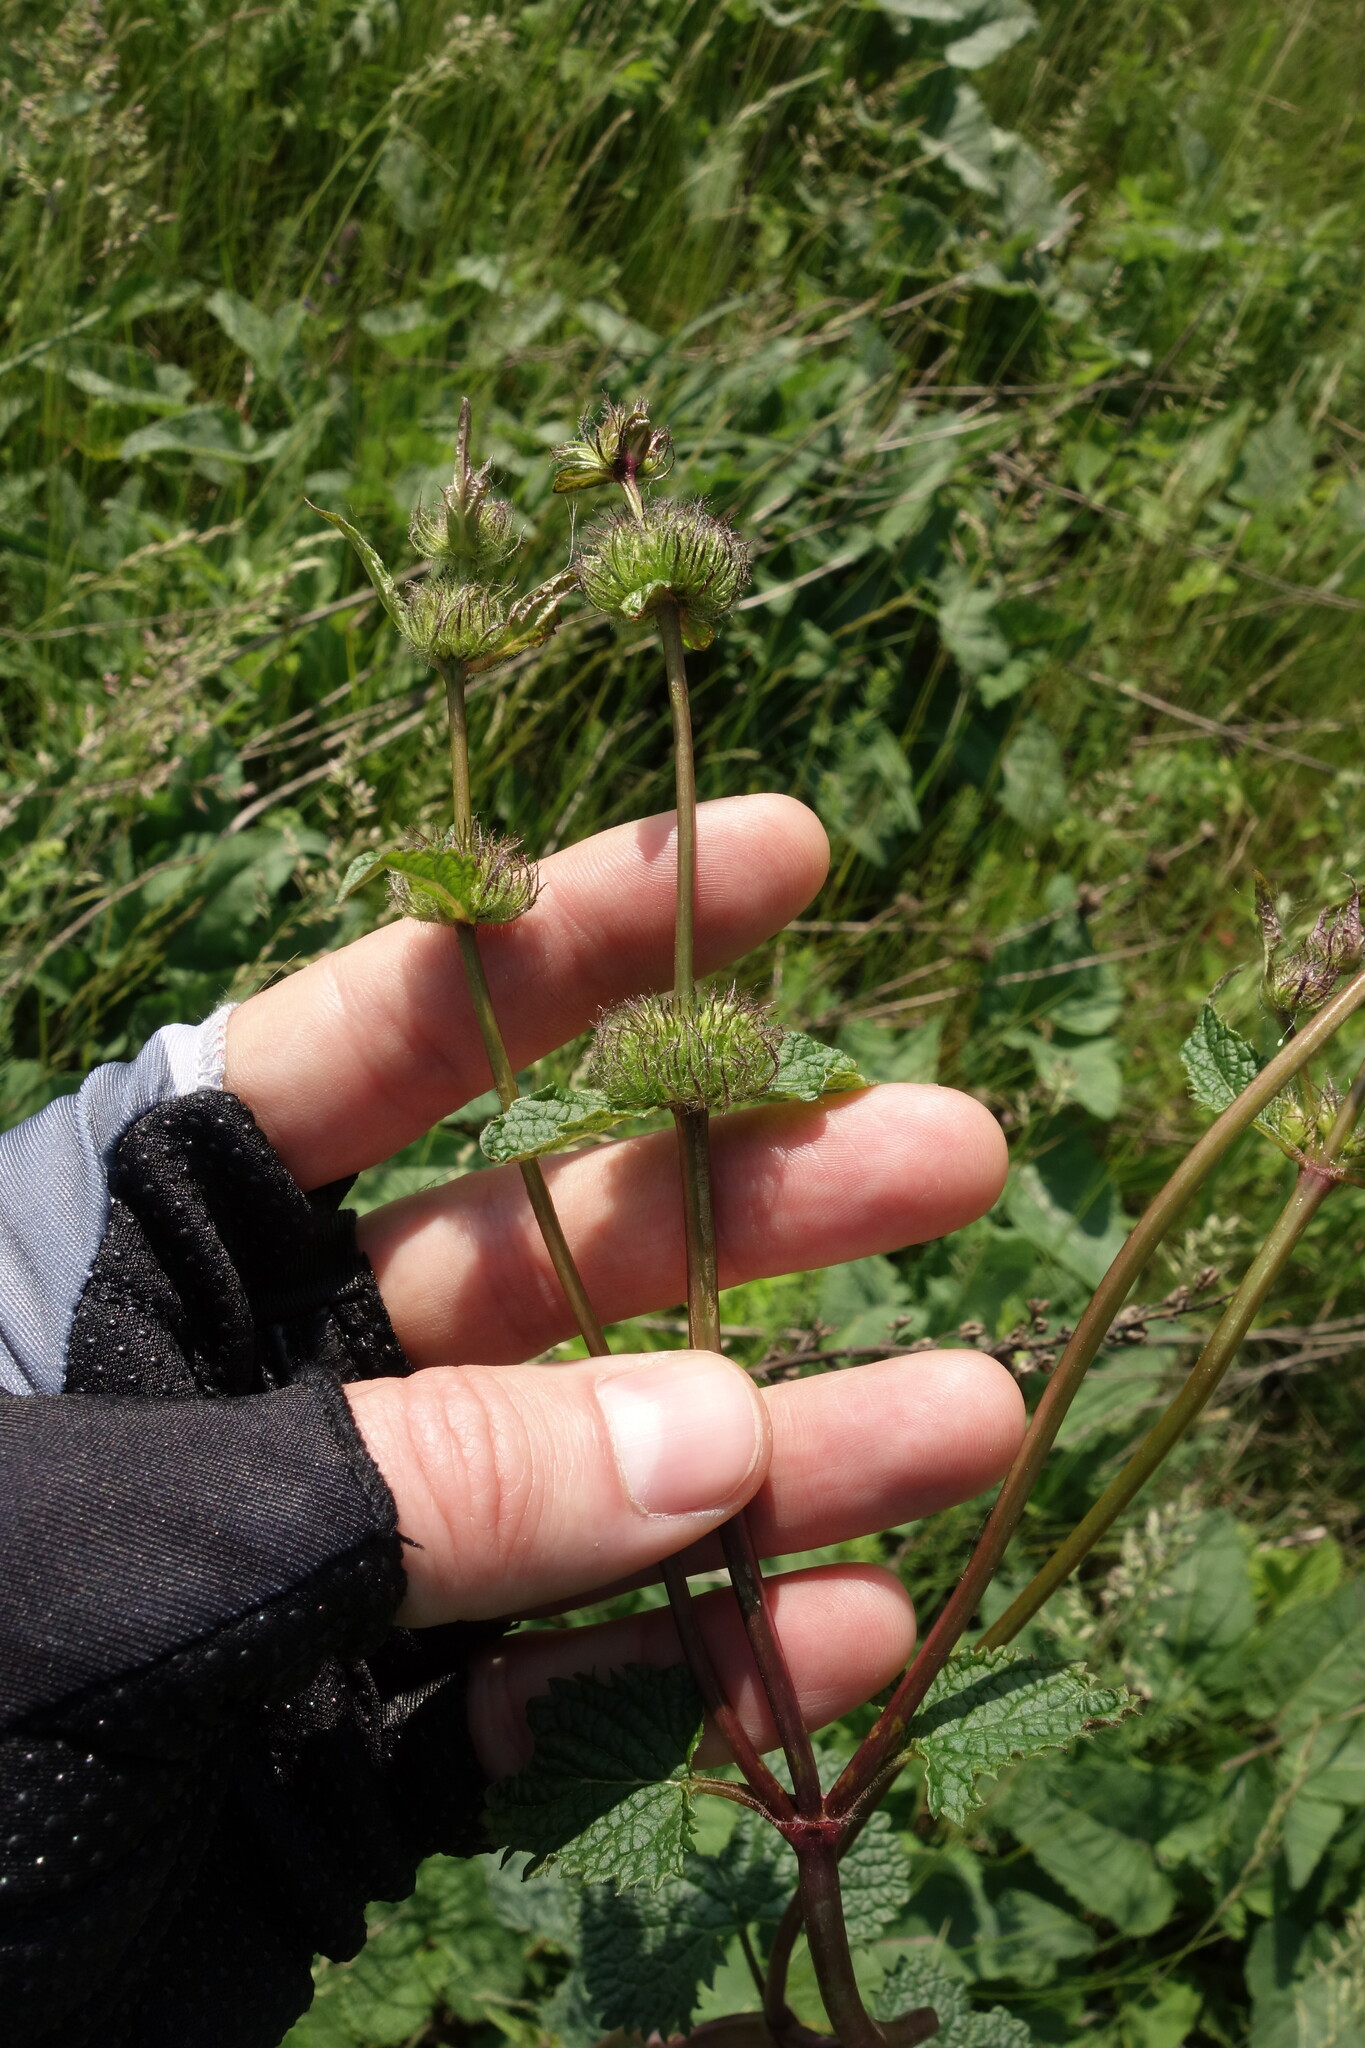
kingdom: Plantae
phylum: Tracheophyta
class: Magnoliopsida
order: Lamiales
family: Lamiaceae
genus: Phlomoides
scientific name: Phlomoides tuberosa
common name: Tuberous jerusalem sage
